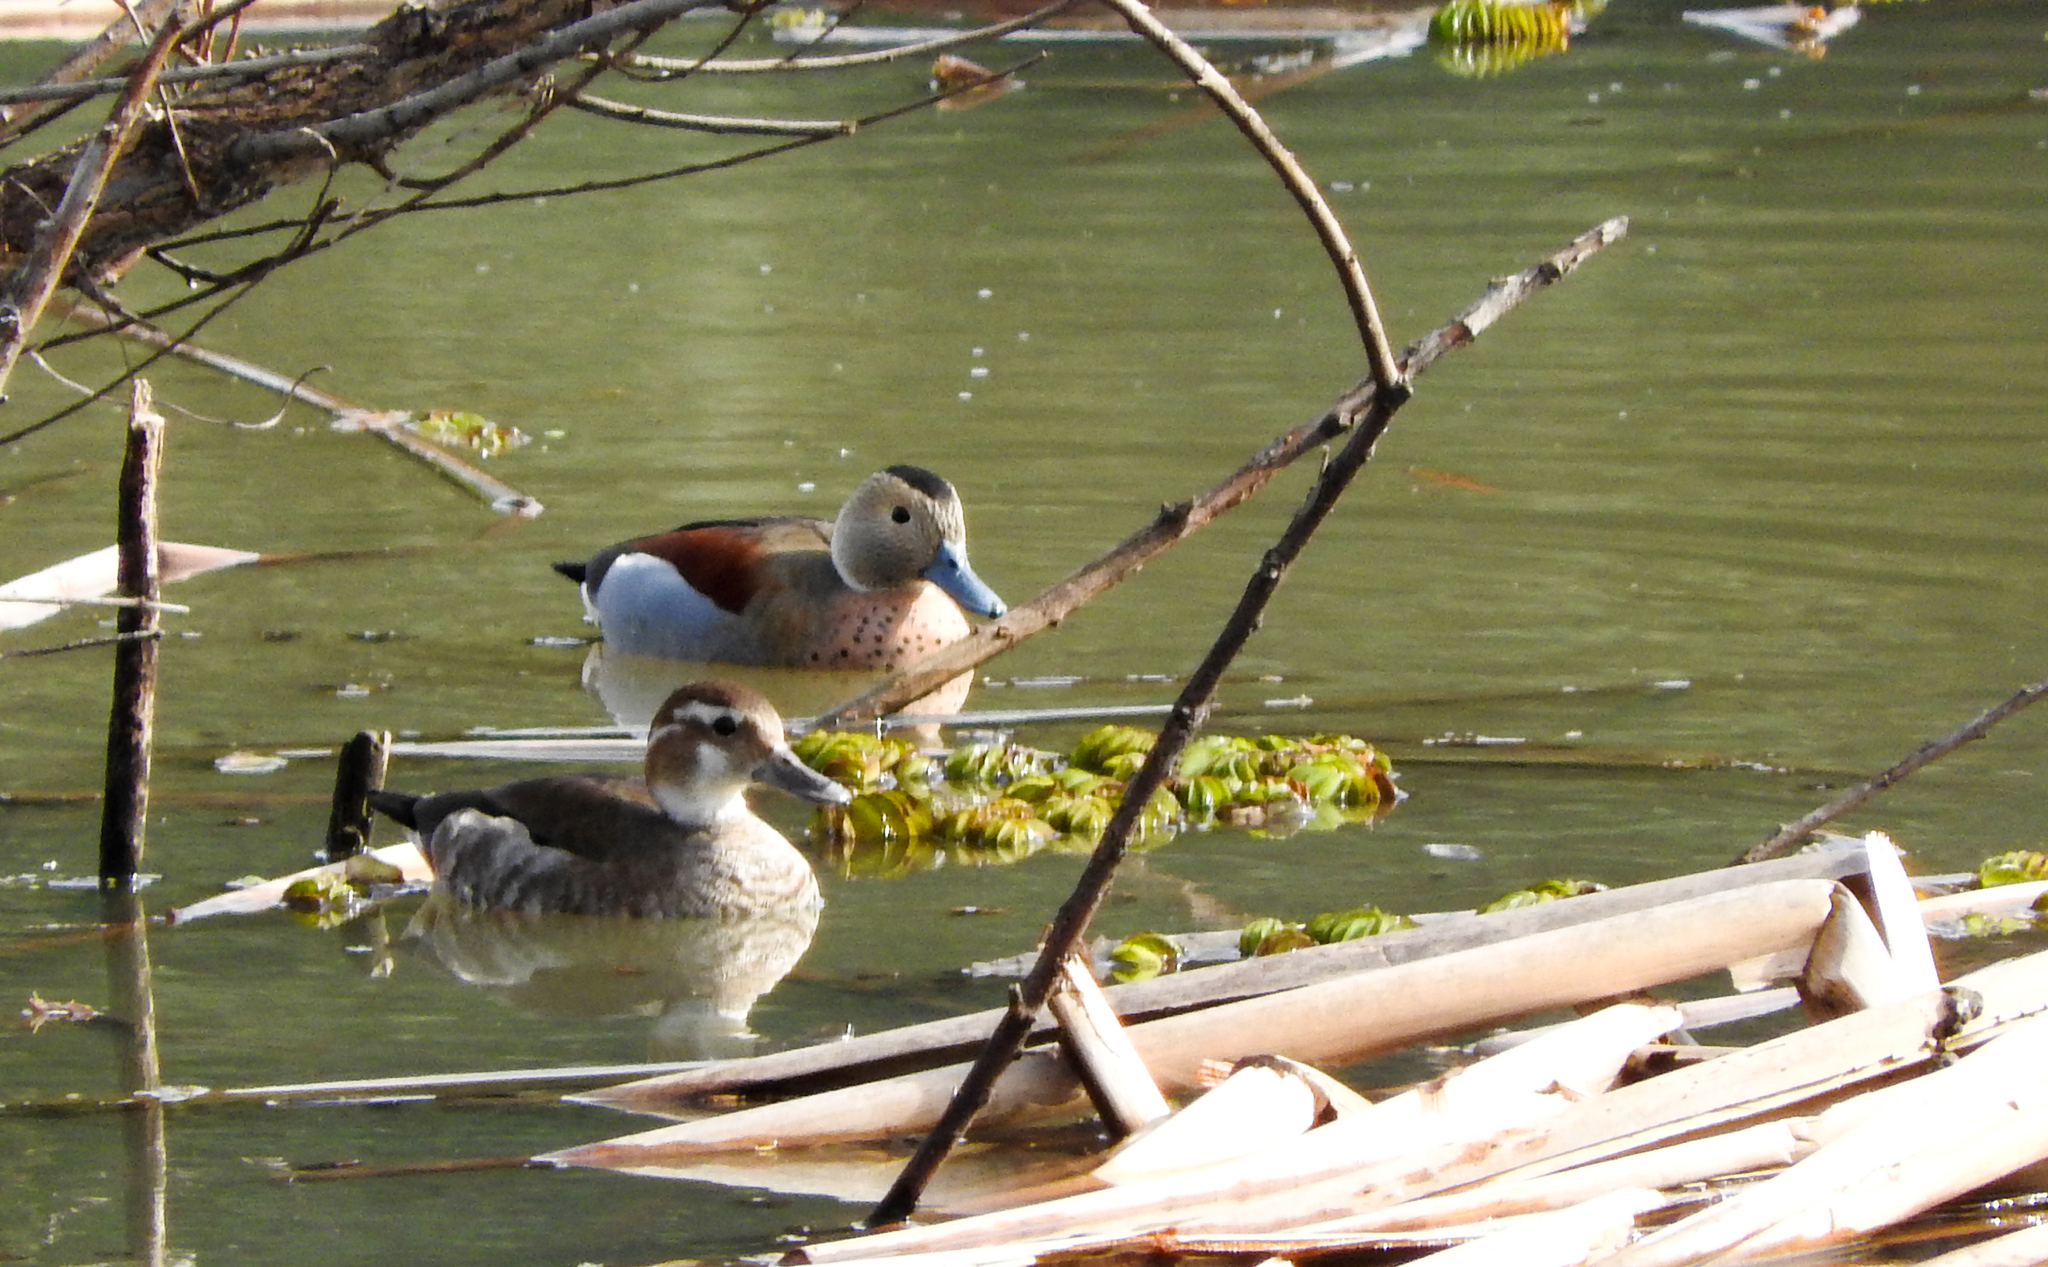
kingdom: Animalia
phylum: Chordata
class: Aves
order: Anseriformes
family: Anatidae
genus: Callonetta
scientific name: Callonetta leucophrys
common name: Ringed teal
